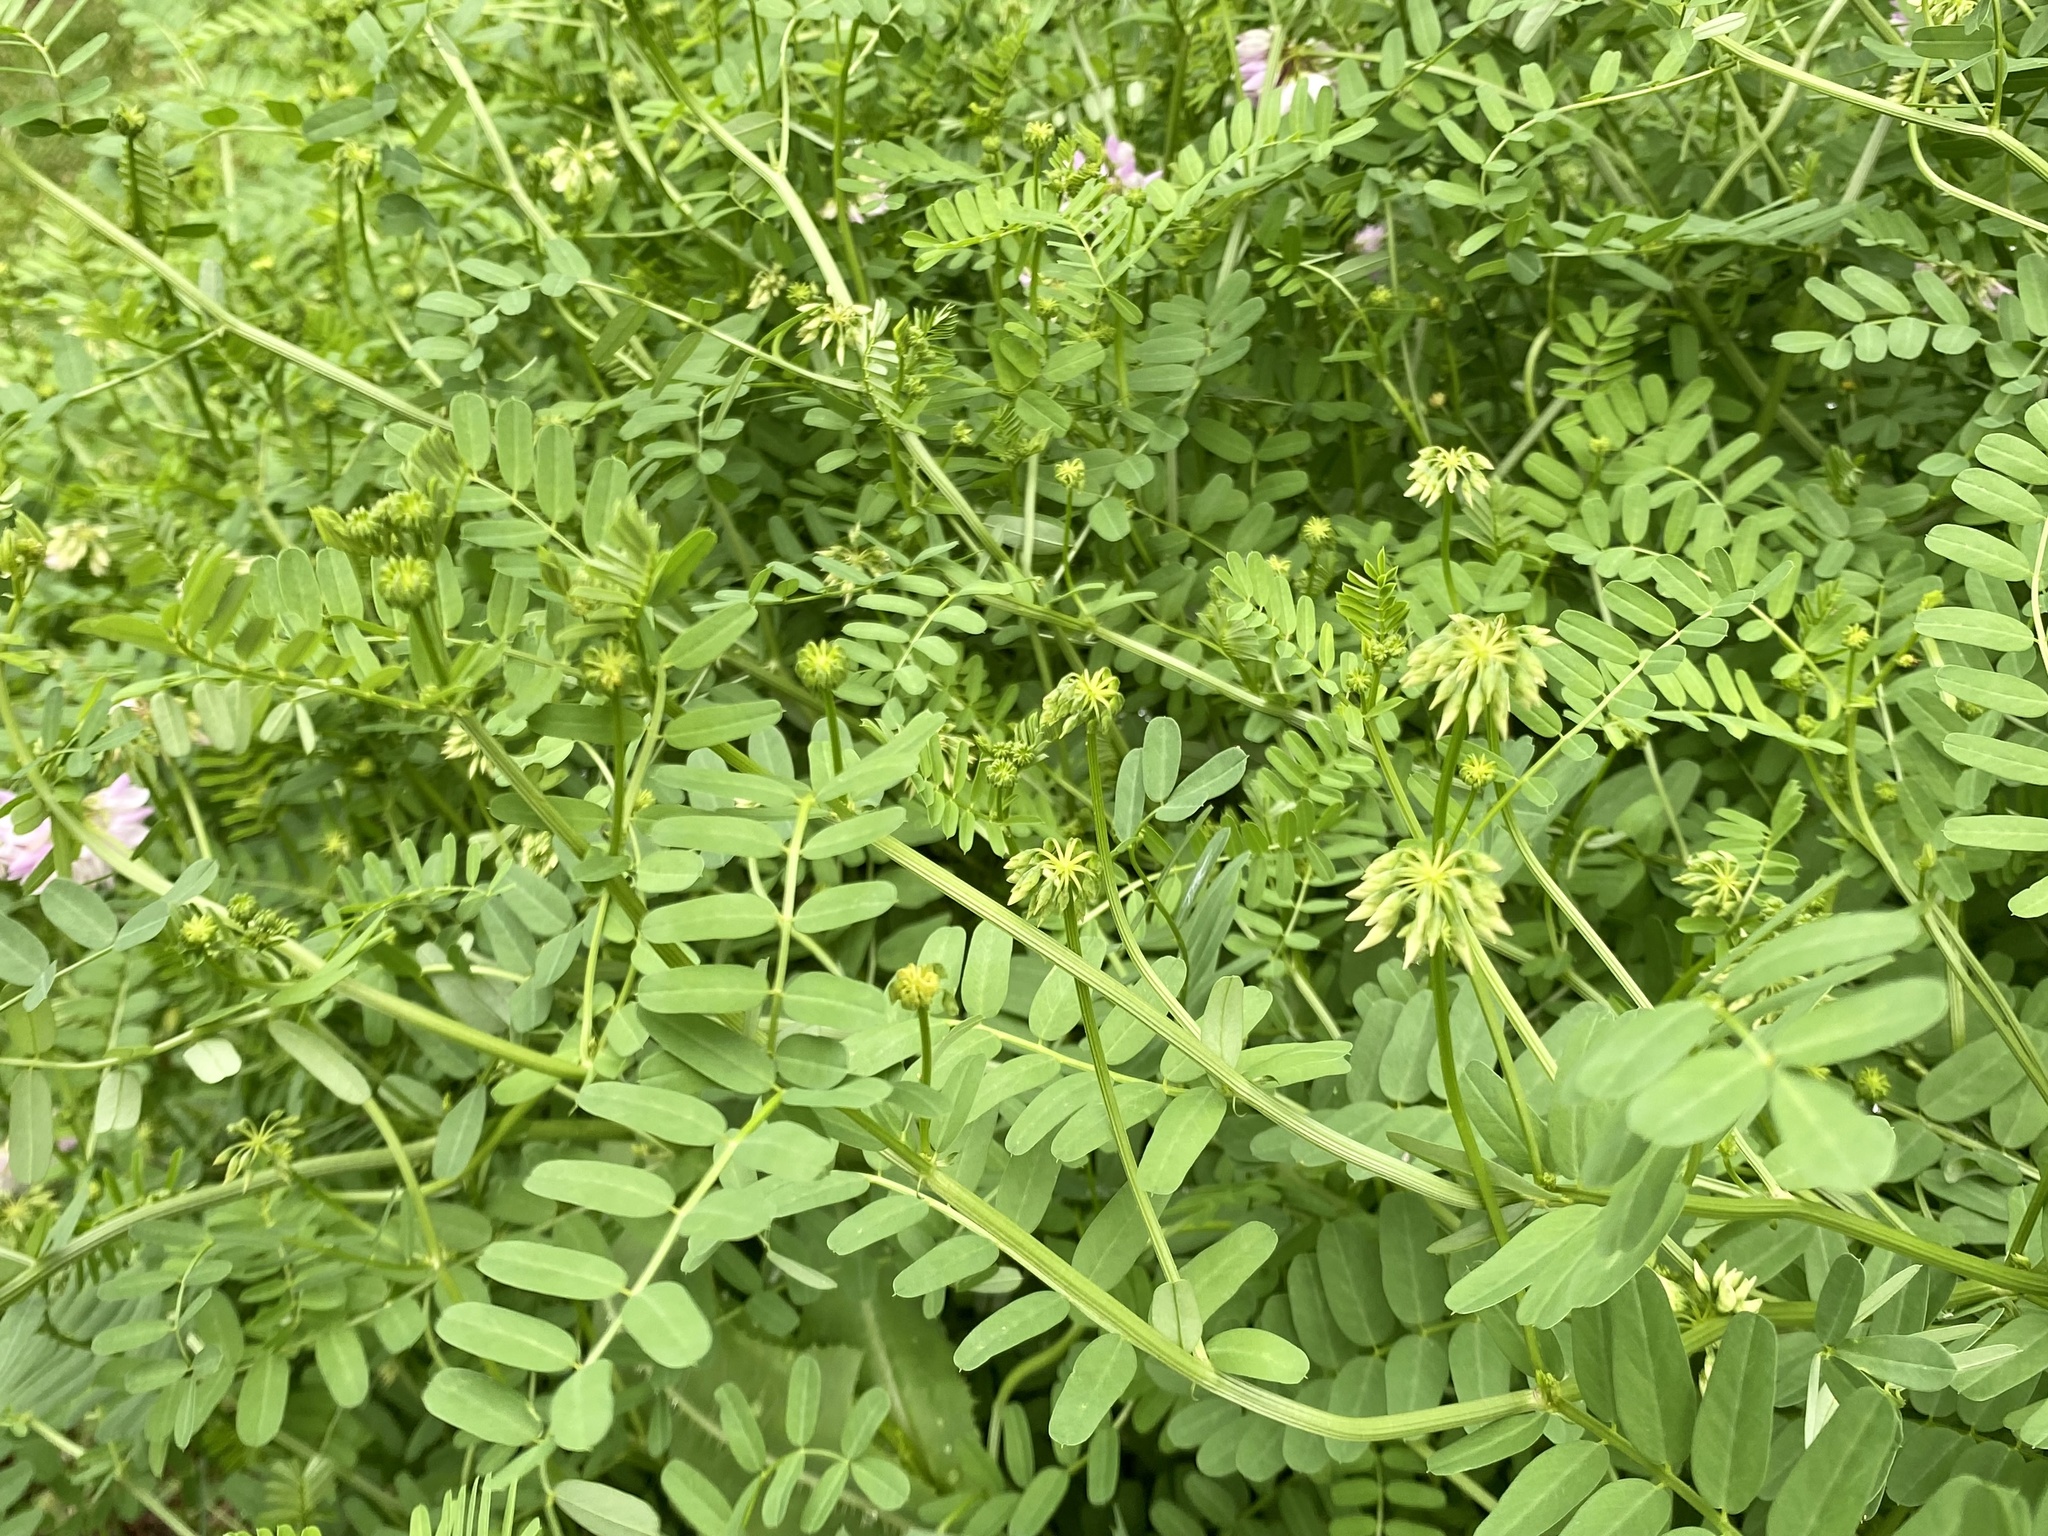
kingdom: Plantae
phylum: Tracheophyta
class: Magnoliopsida
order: Fabales
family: Fabaceae
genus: Coronilla
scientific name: Coronilla varia
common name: Crownvetch
